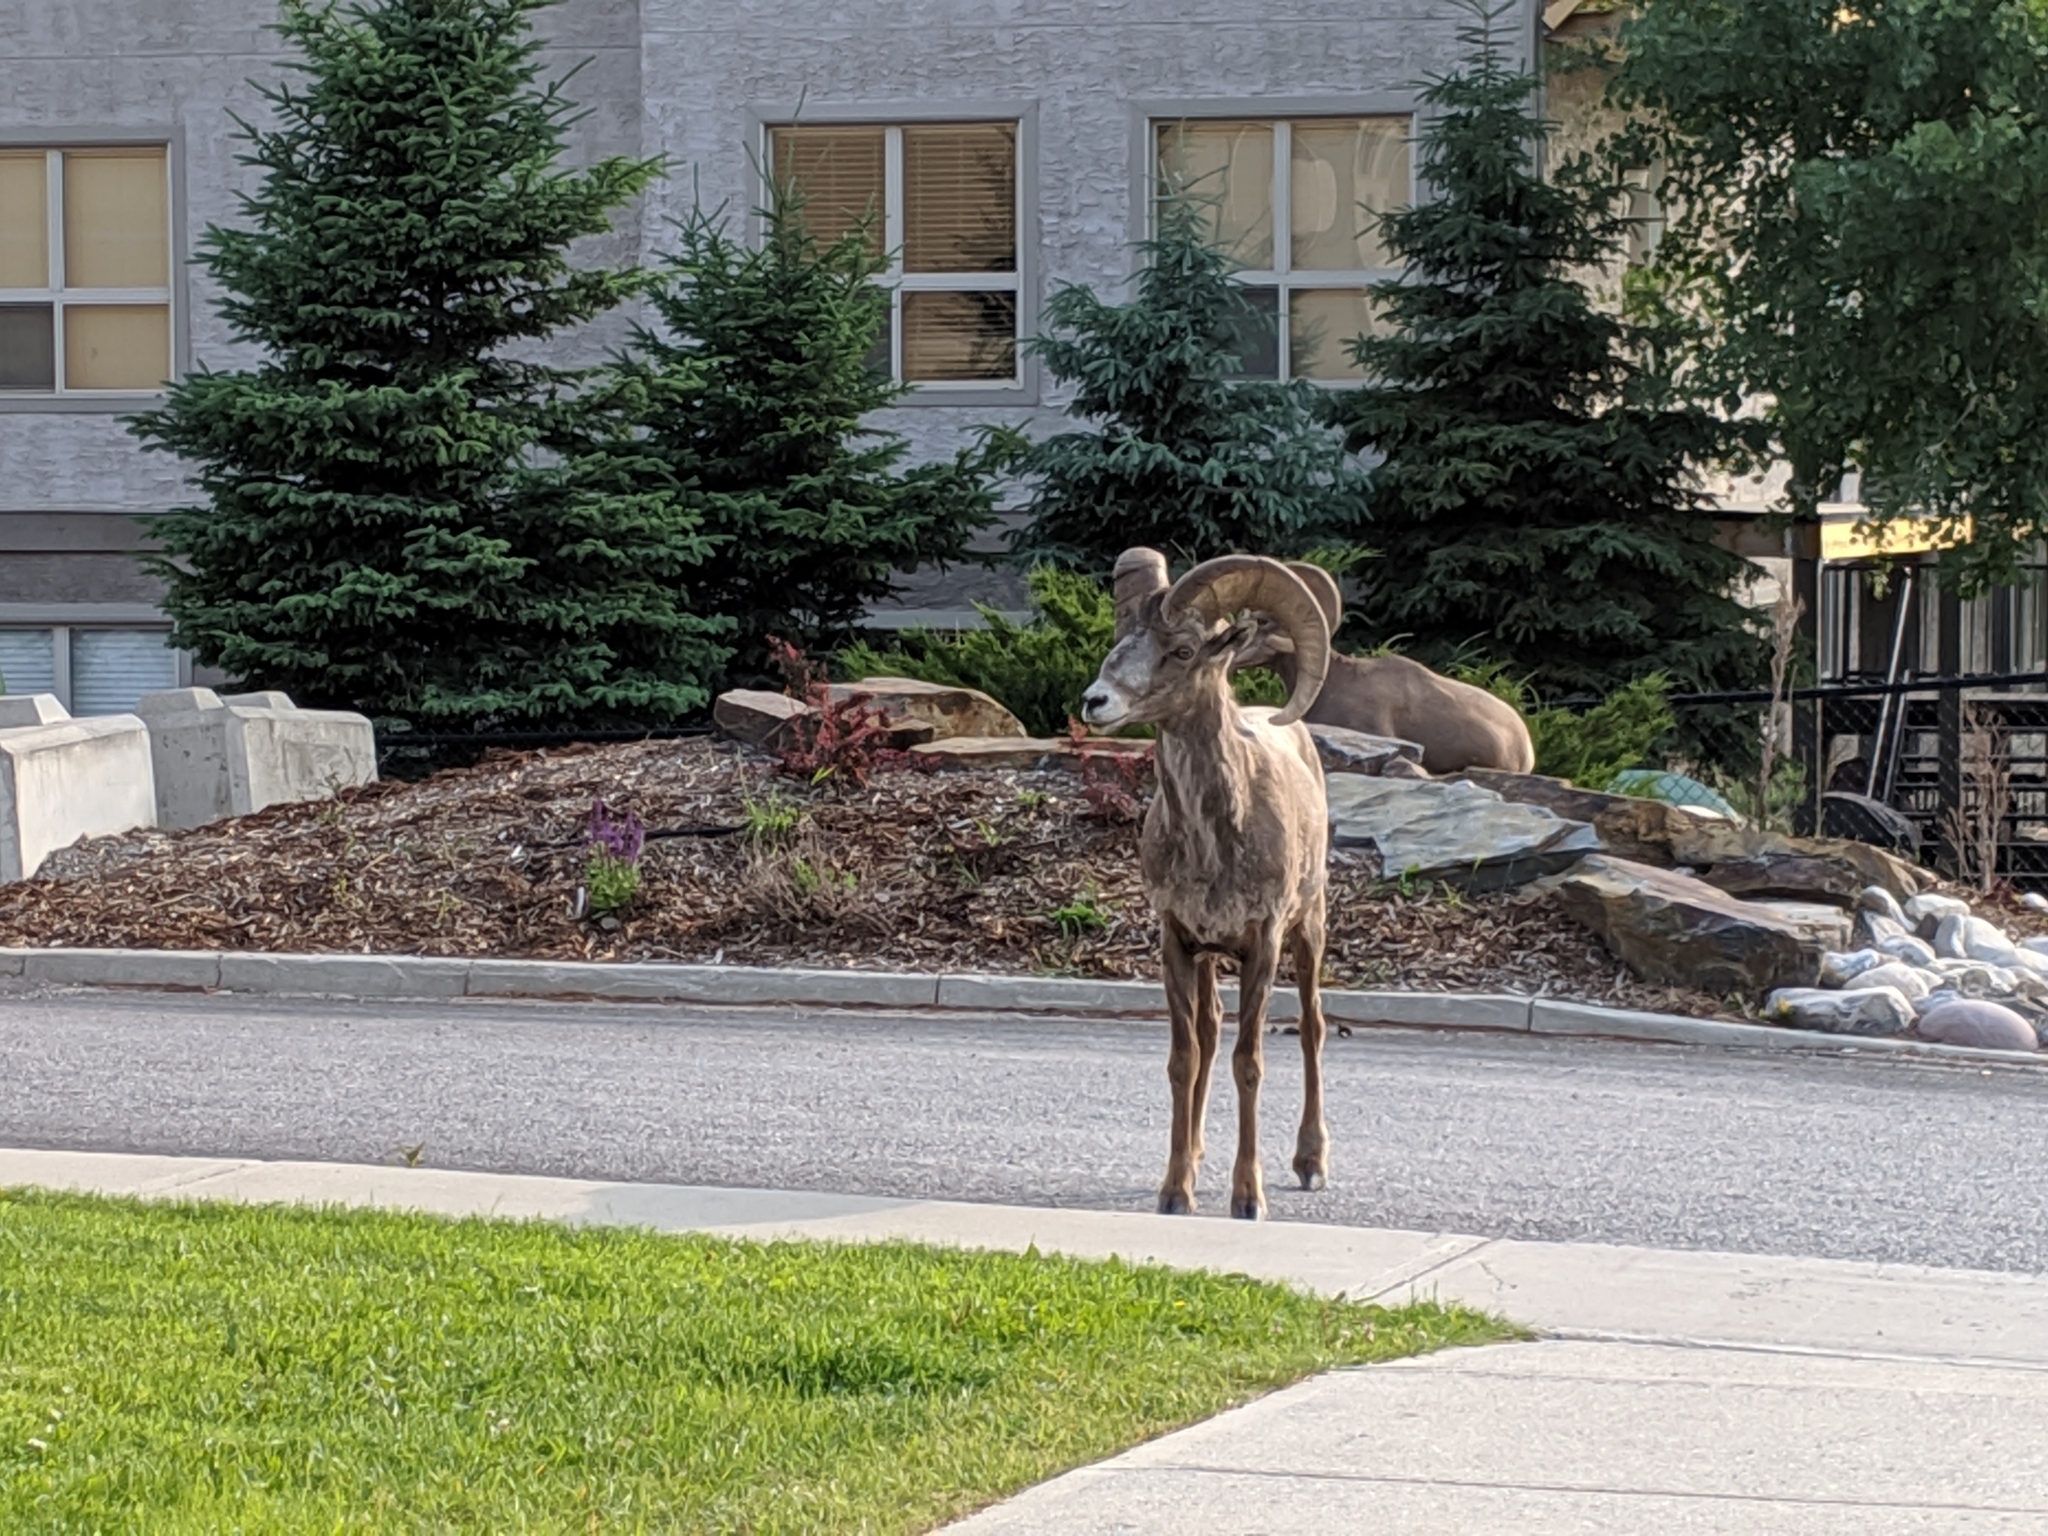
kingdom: Animalia
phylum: Chordata
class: Mammalia
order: Artiodactyla
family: Bovidae
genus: Ovis
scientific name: Ovis canadensis
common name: Bighorn sheep
